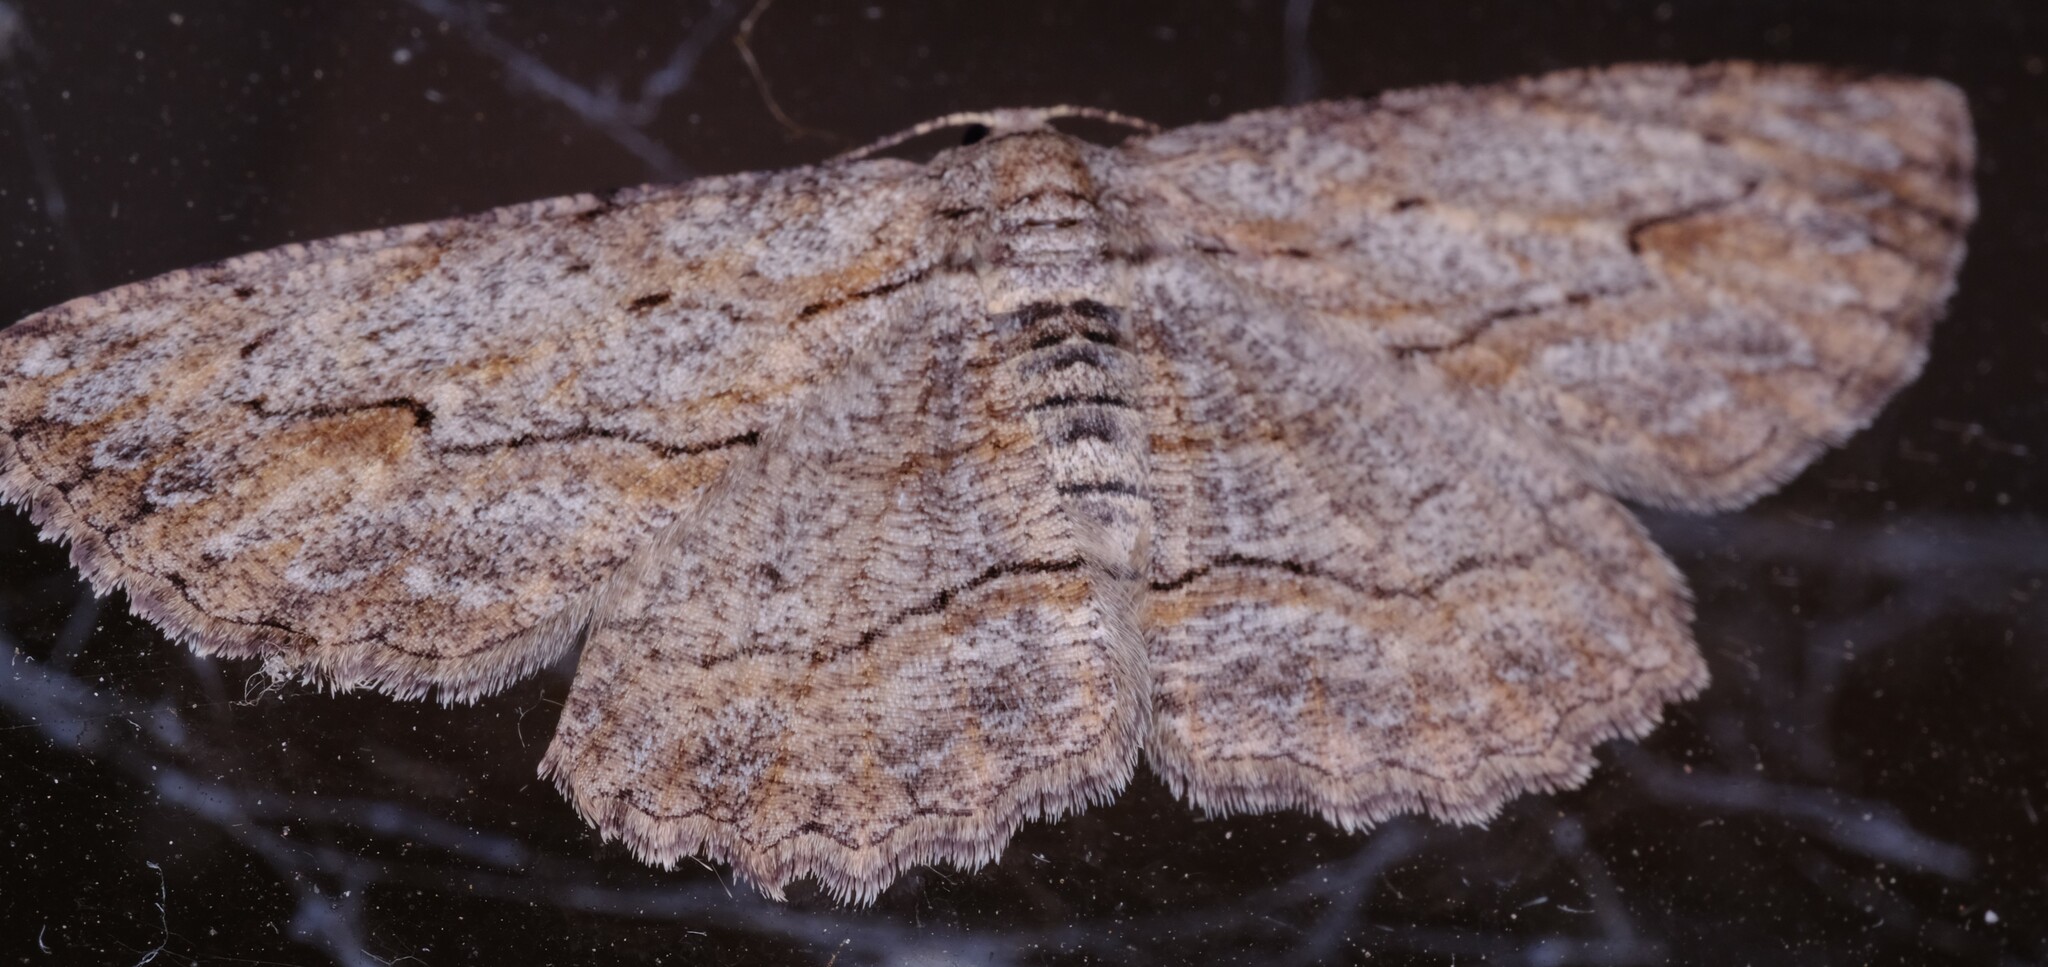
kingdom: Animalia
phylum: Arthropoda
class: Insecta
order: Lepidoptera
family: Geometridae
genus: Ectropis
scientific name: Ectropis excursaria
